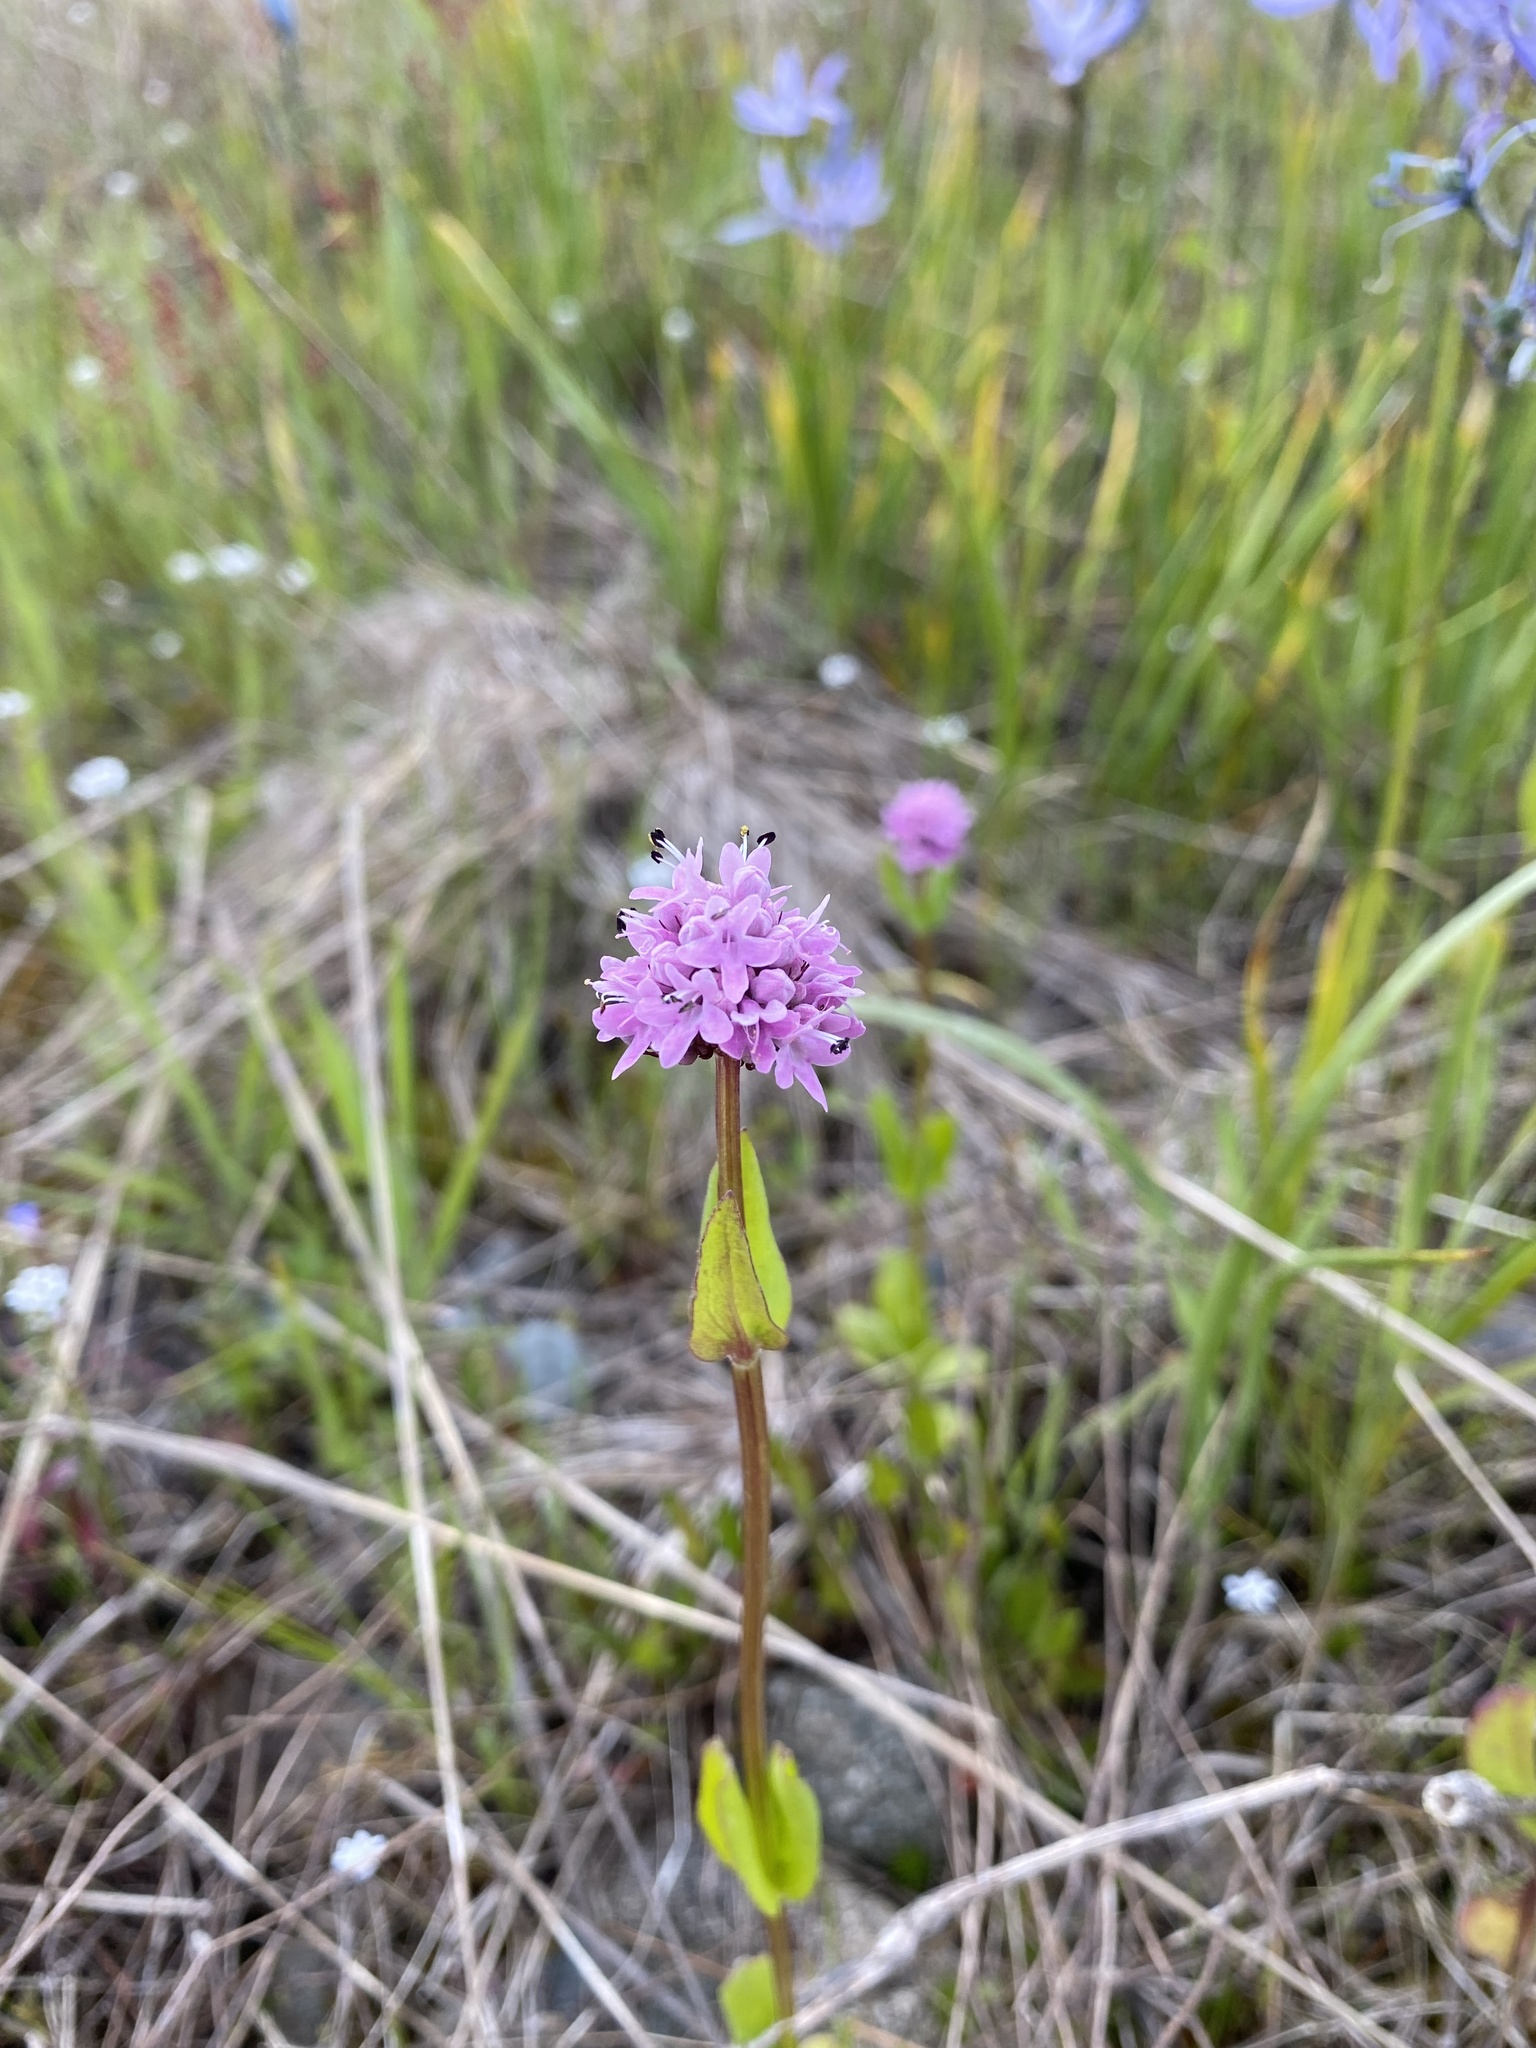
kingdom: Plantae
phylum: Tracheophyta
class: Magnoliopsida
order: Dipsacales
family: Caprifoliaceae
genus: Plectritis
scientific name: Plectritis congesta
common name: Pink plectritis
